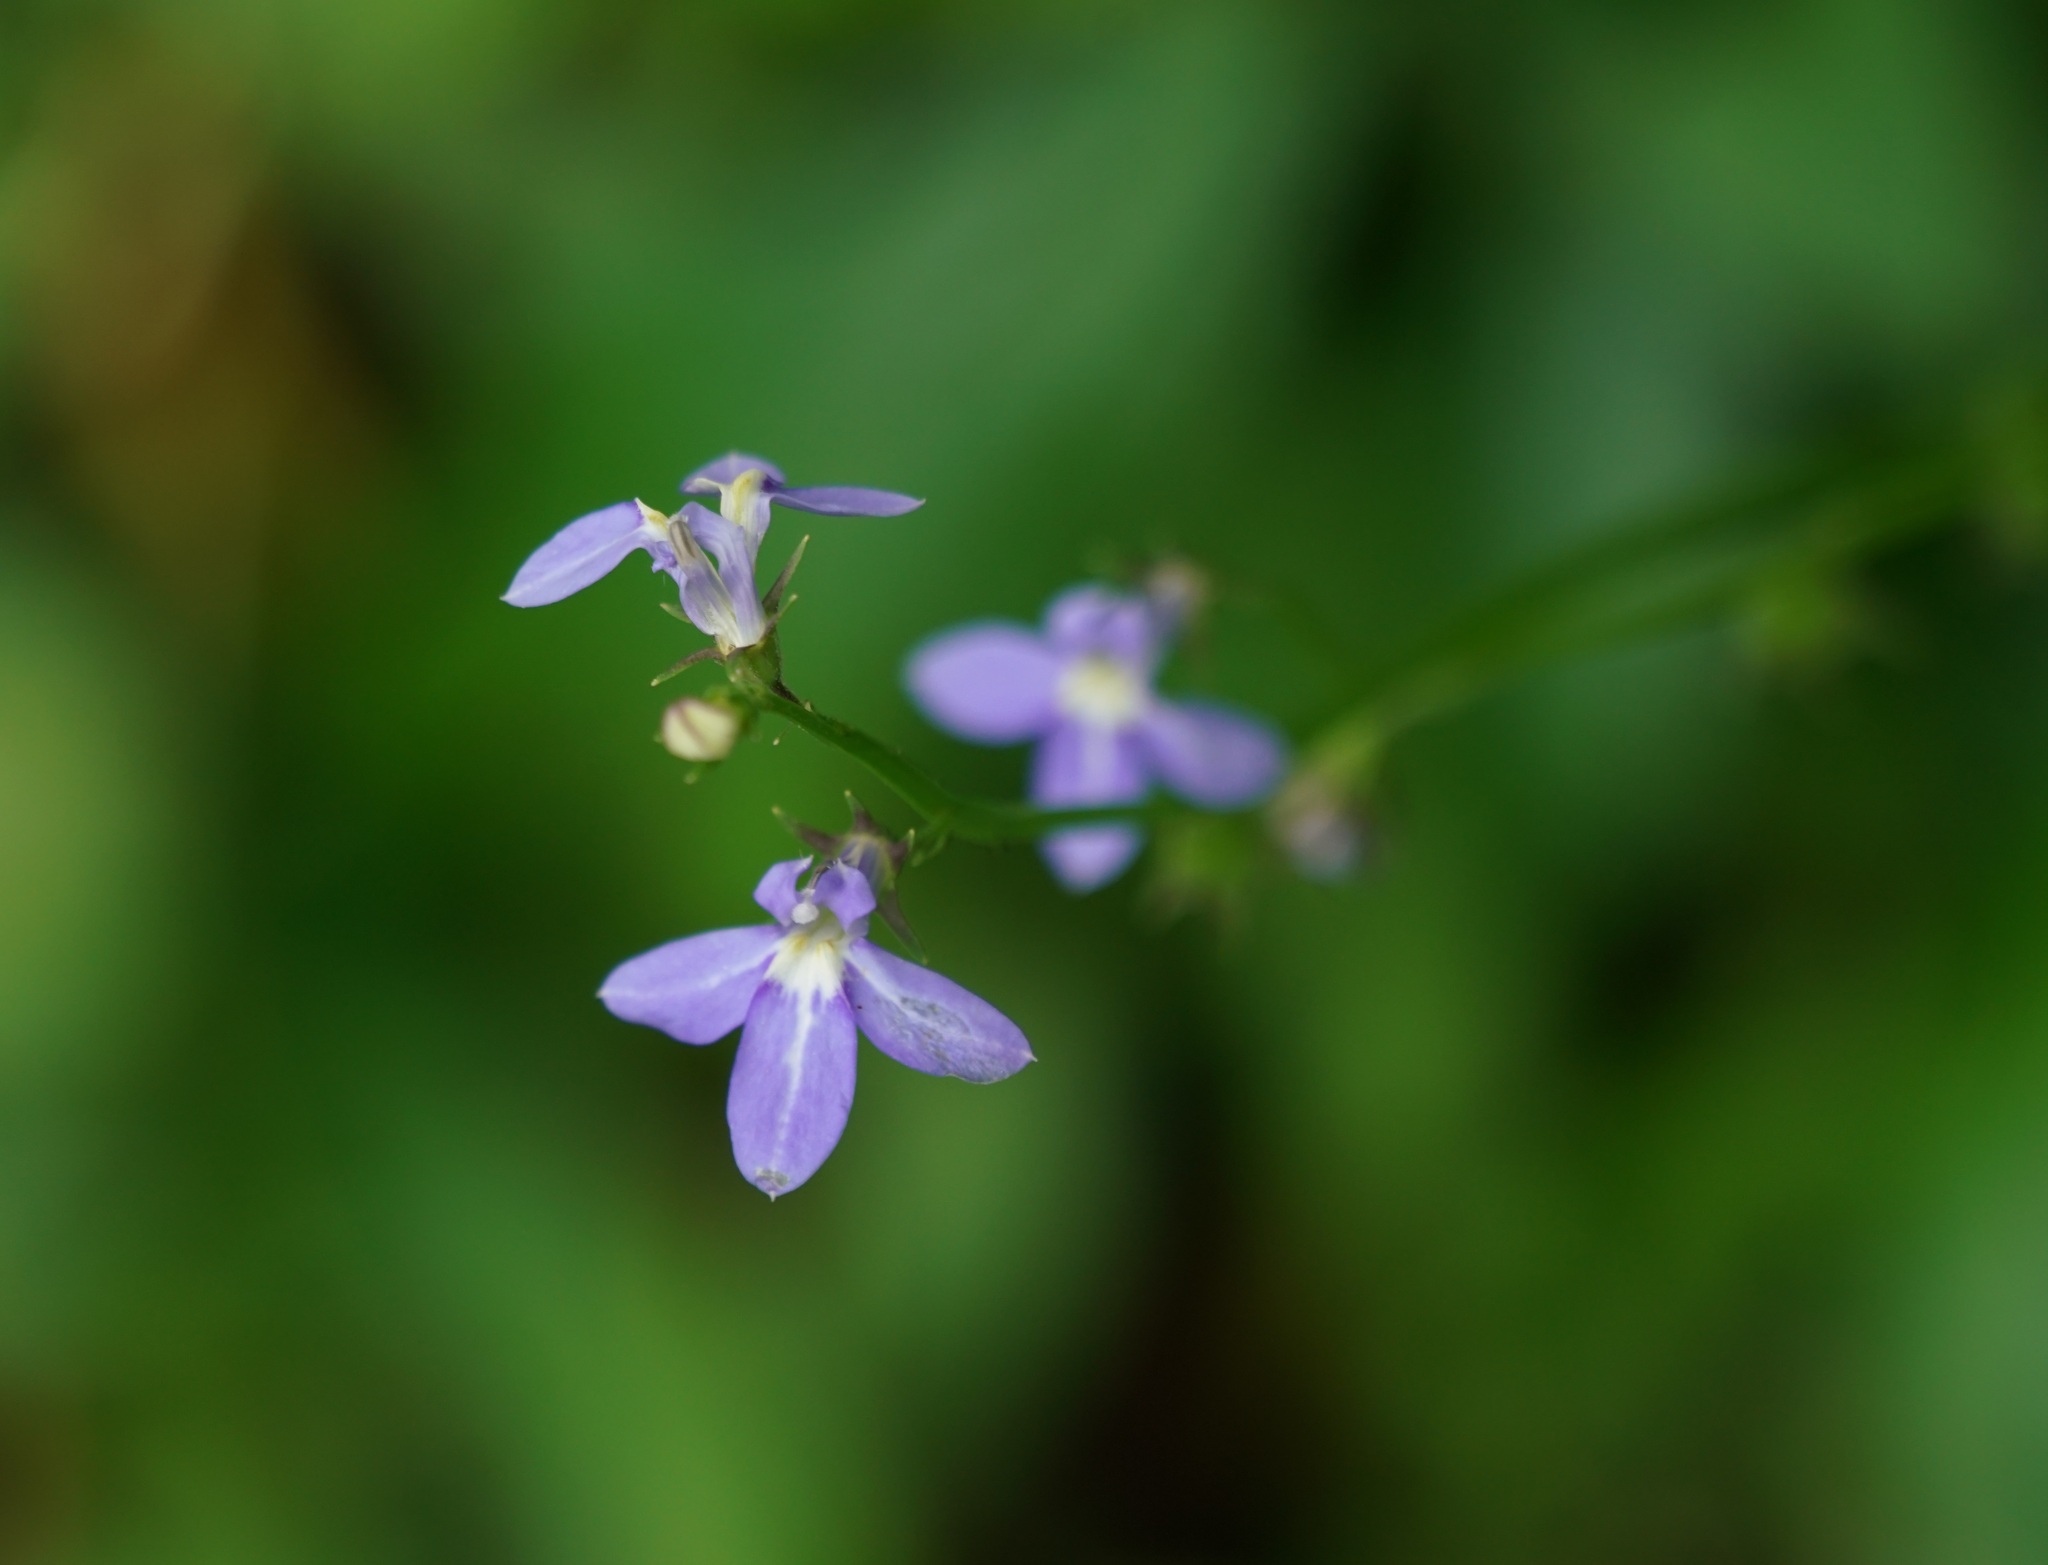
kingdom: Plantae
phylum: Tracheophyta
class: Magnoliopsida
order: Asterales
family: Campanulaceae
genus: Lobelia
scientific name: Lobelia trigonocaulis
